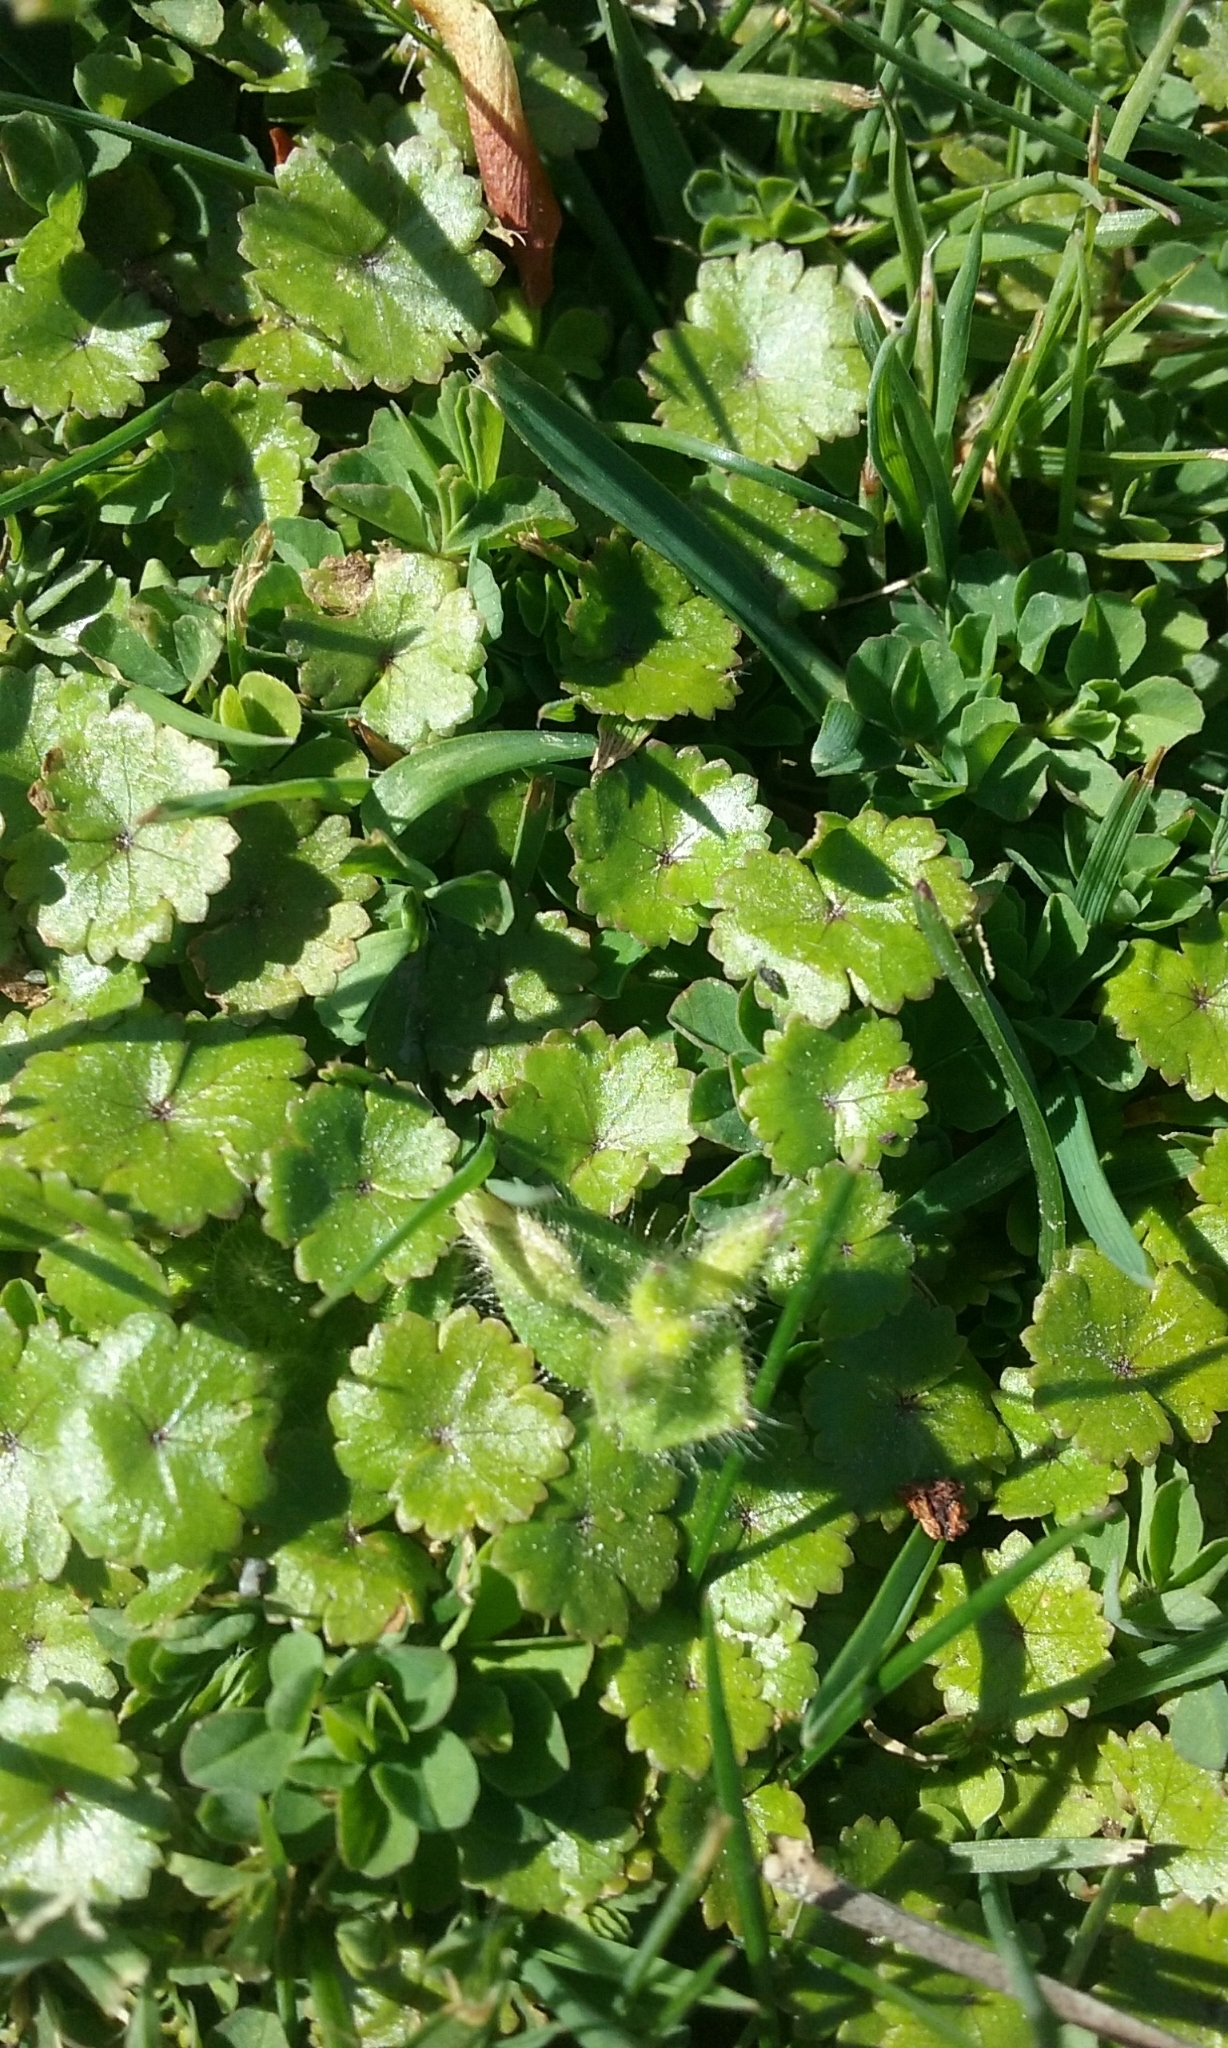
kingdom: Plantae
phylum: Tracheophyta
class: Magnoliopsida
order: Apiales
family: Araliaceae
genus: Hydrocotyle
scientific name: Hydrocotyle microphylla
